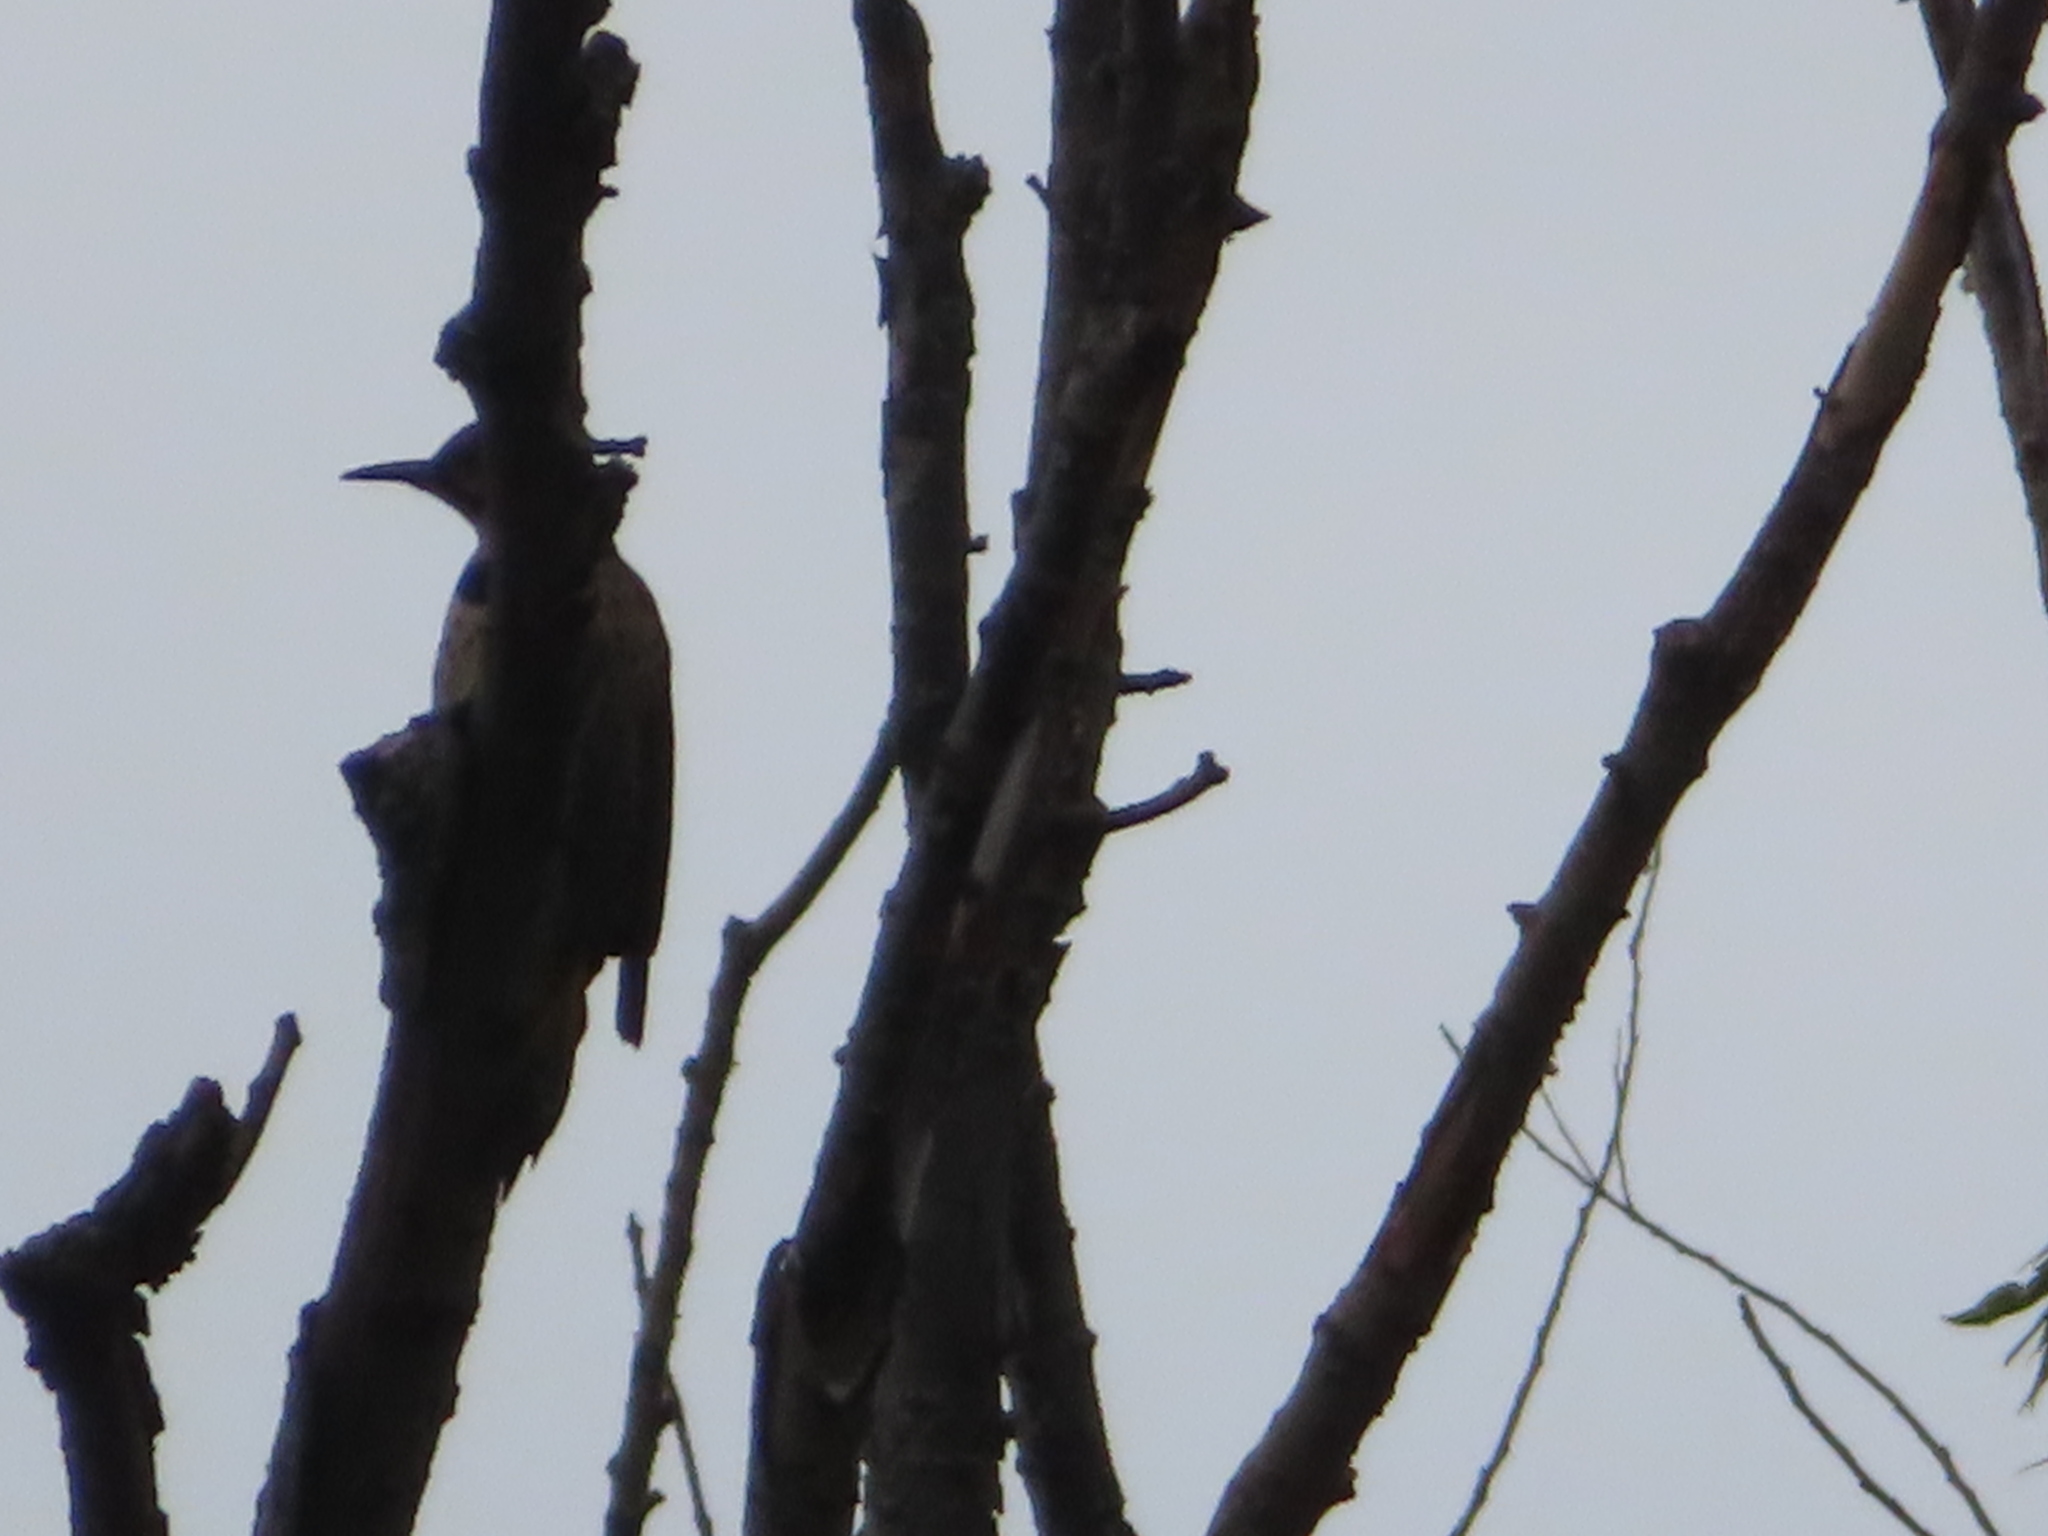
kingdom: Animalia
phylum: Chordata
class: Aves
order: Piciformes
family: Picidae
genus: Colaptes
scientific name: Colaptes auratus
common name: Northern flicker
